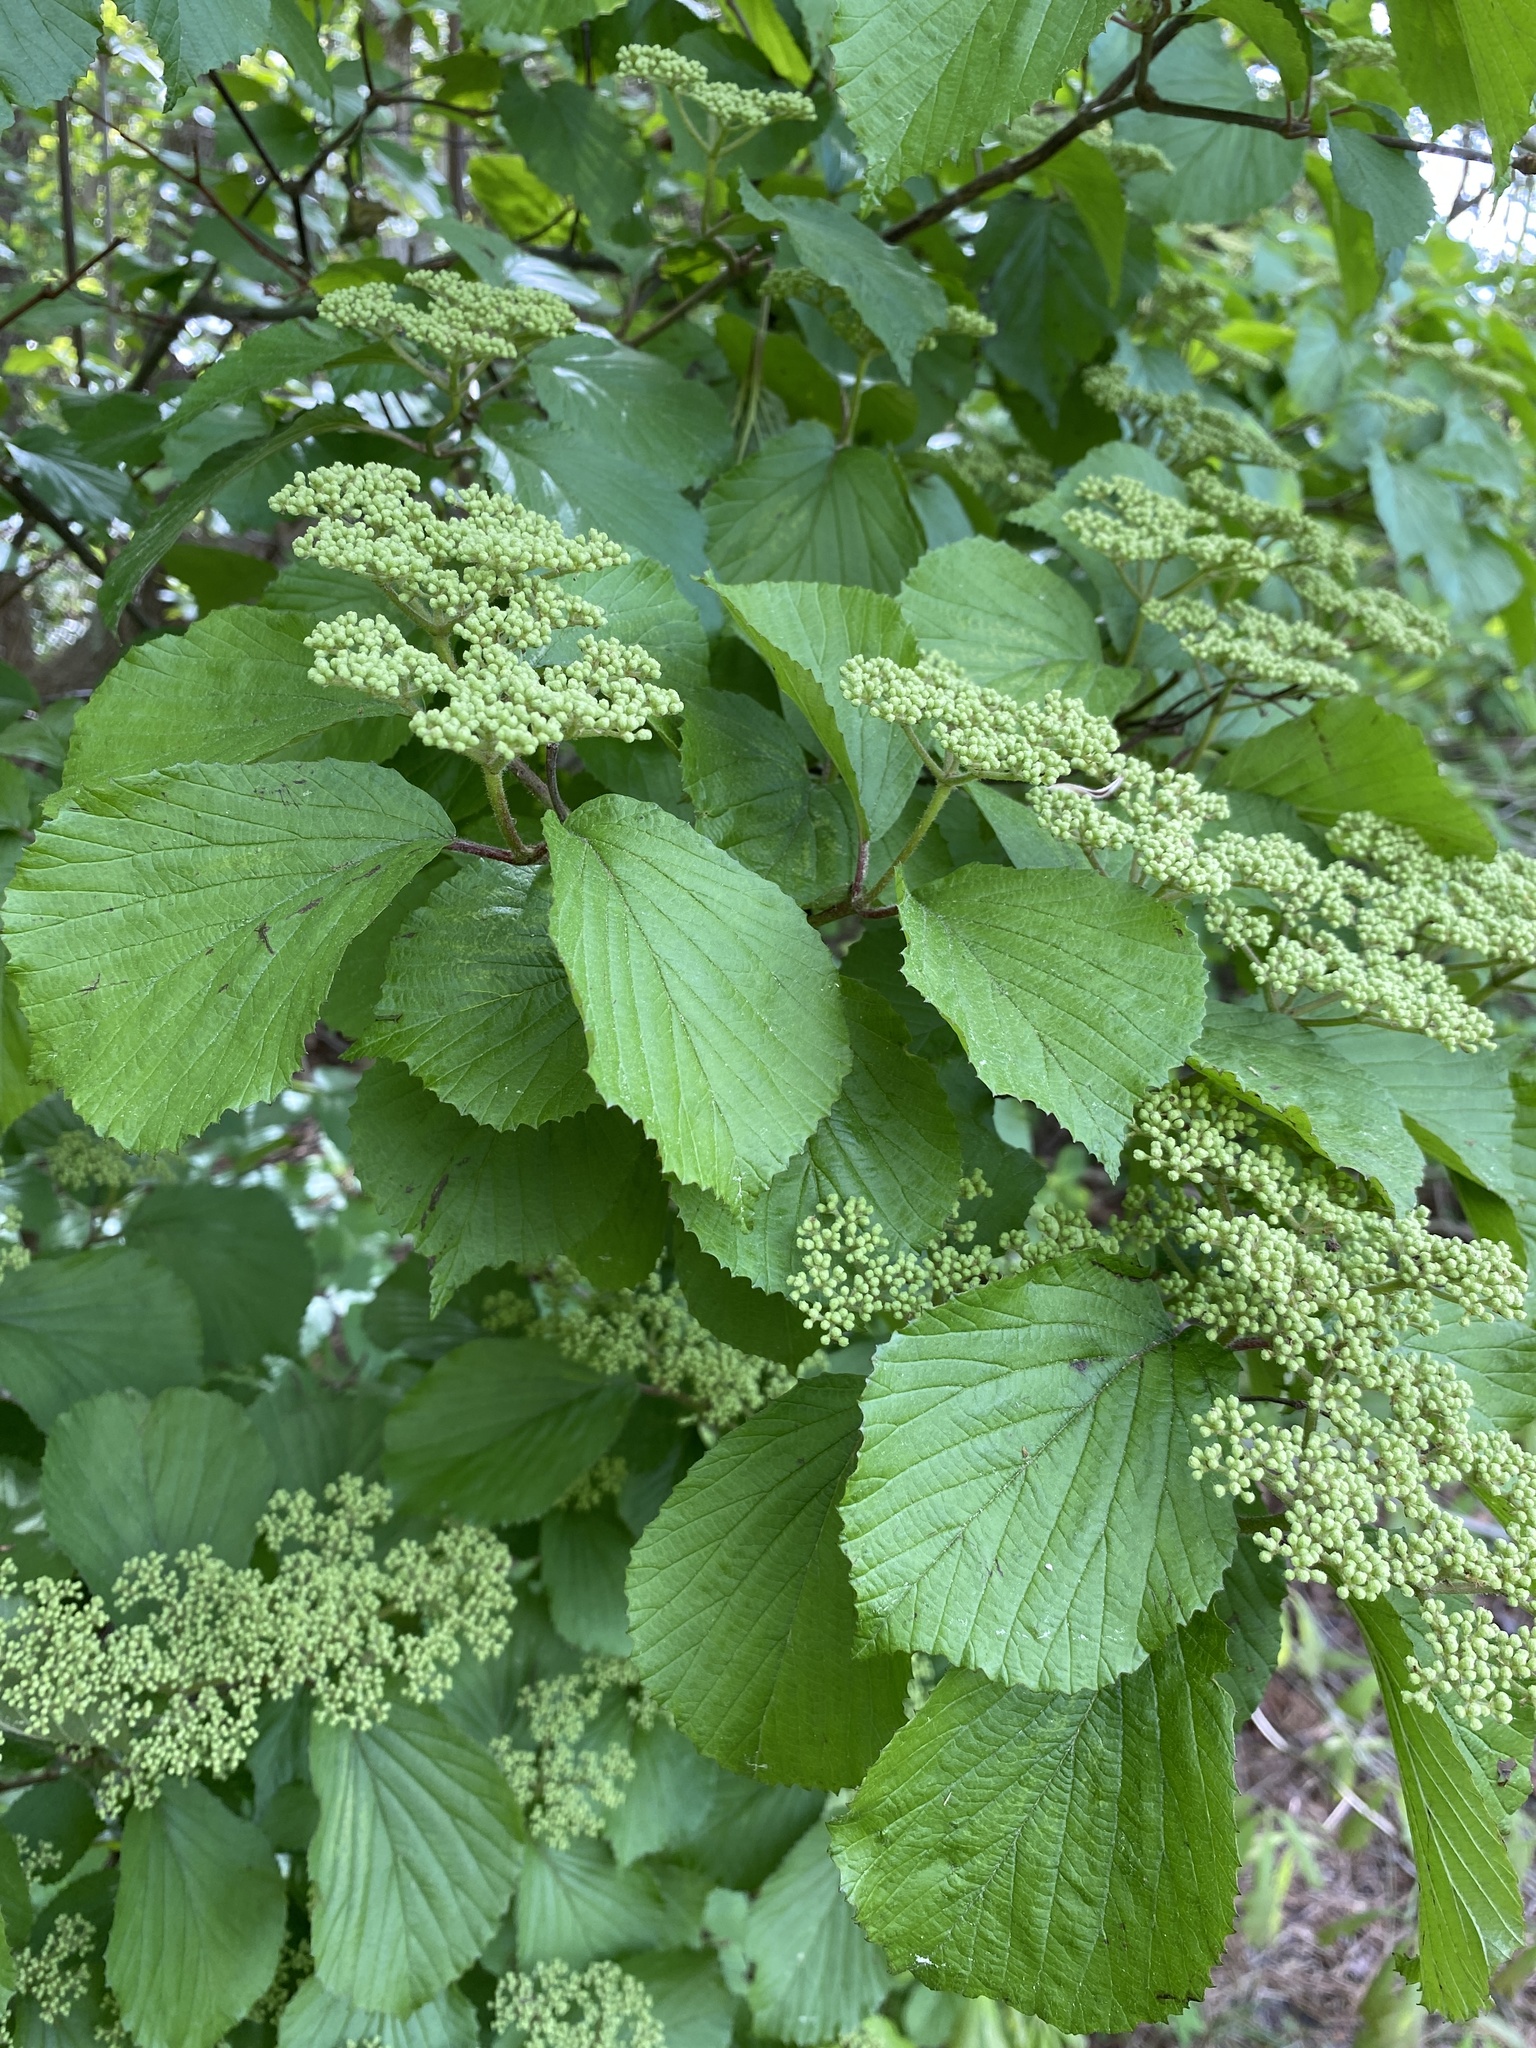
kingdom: Plantae
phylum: Tracheophyta
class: Magnoliopsida
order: Dipsacales
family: Viburnaceae
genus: Viburnum
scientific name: Viburnum dilatatum
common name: Linden arrowwood
